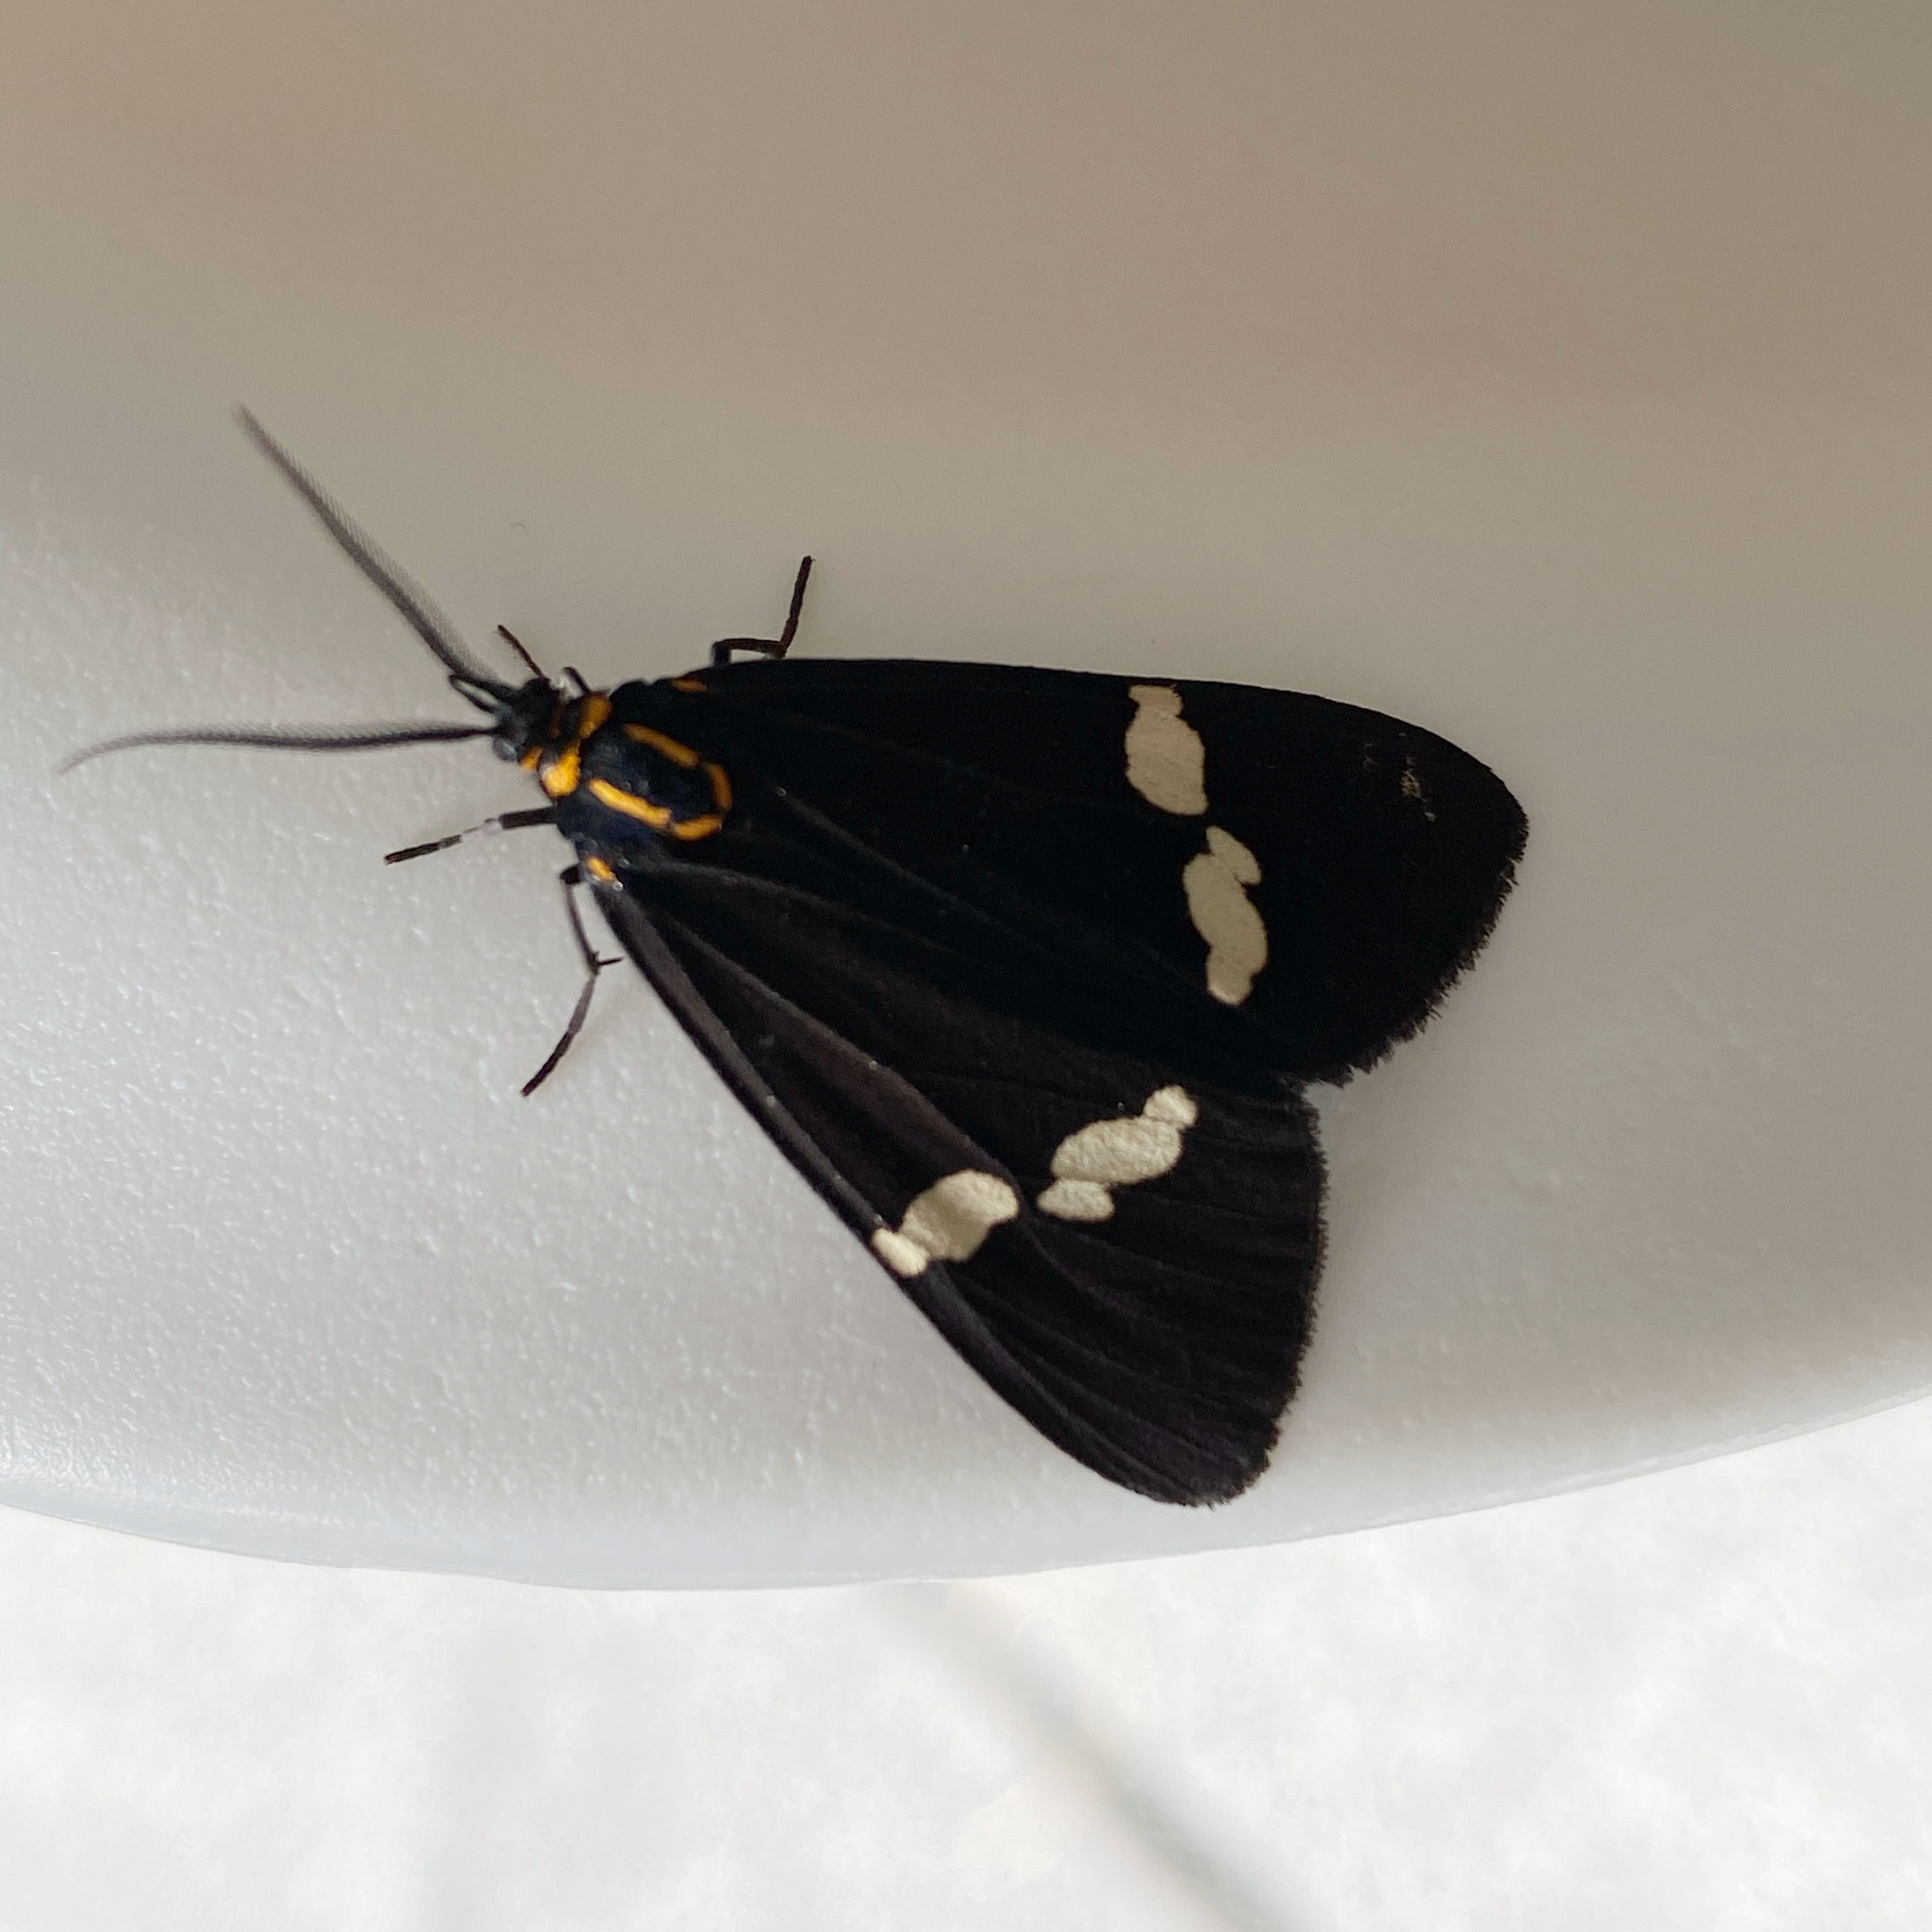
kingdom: Animalia
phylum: Arthropoda
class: Insecta
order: Lepidoptera
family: Erebidae
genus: Nyctemera
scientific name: Nyctemera annulatum
